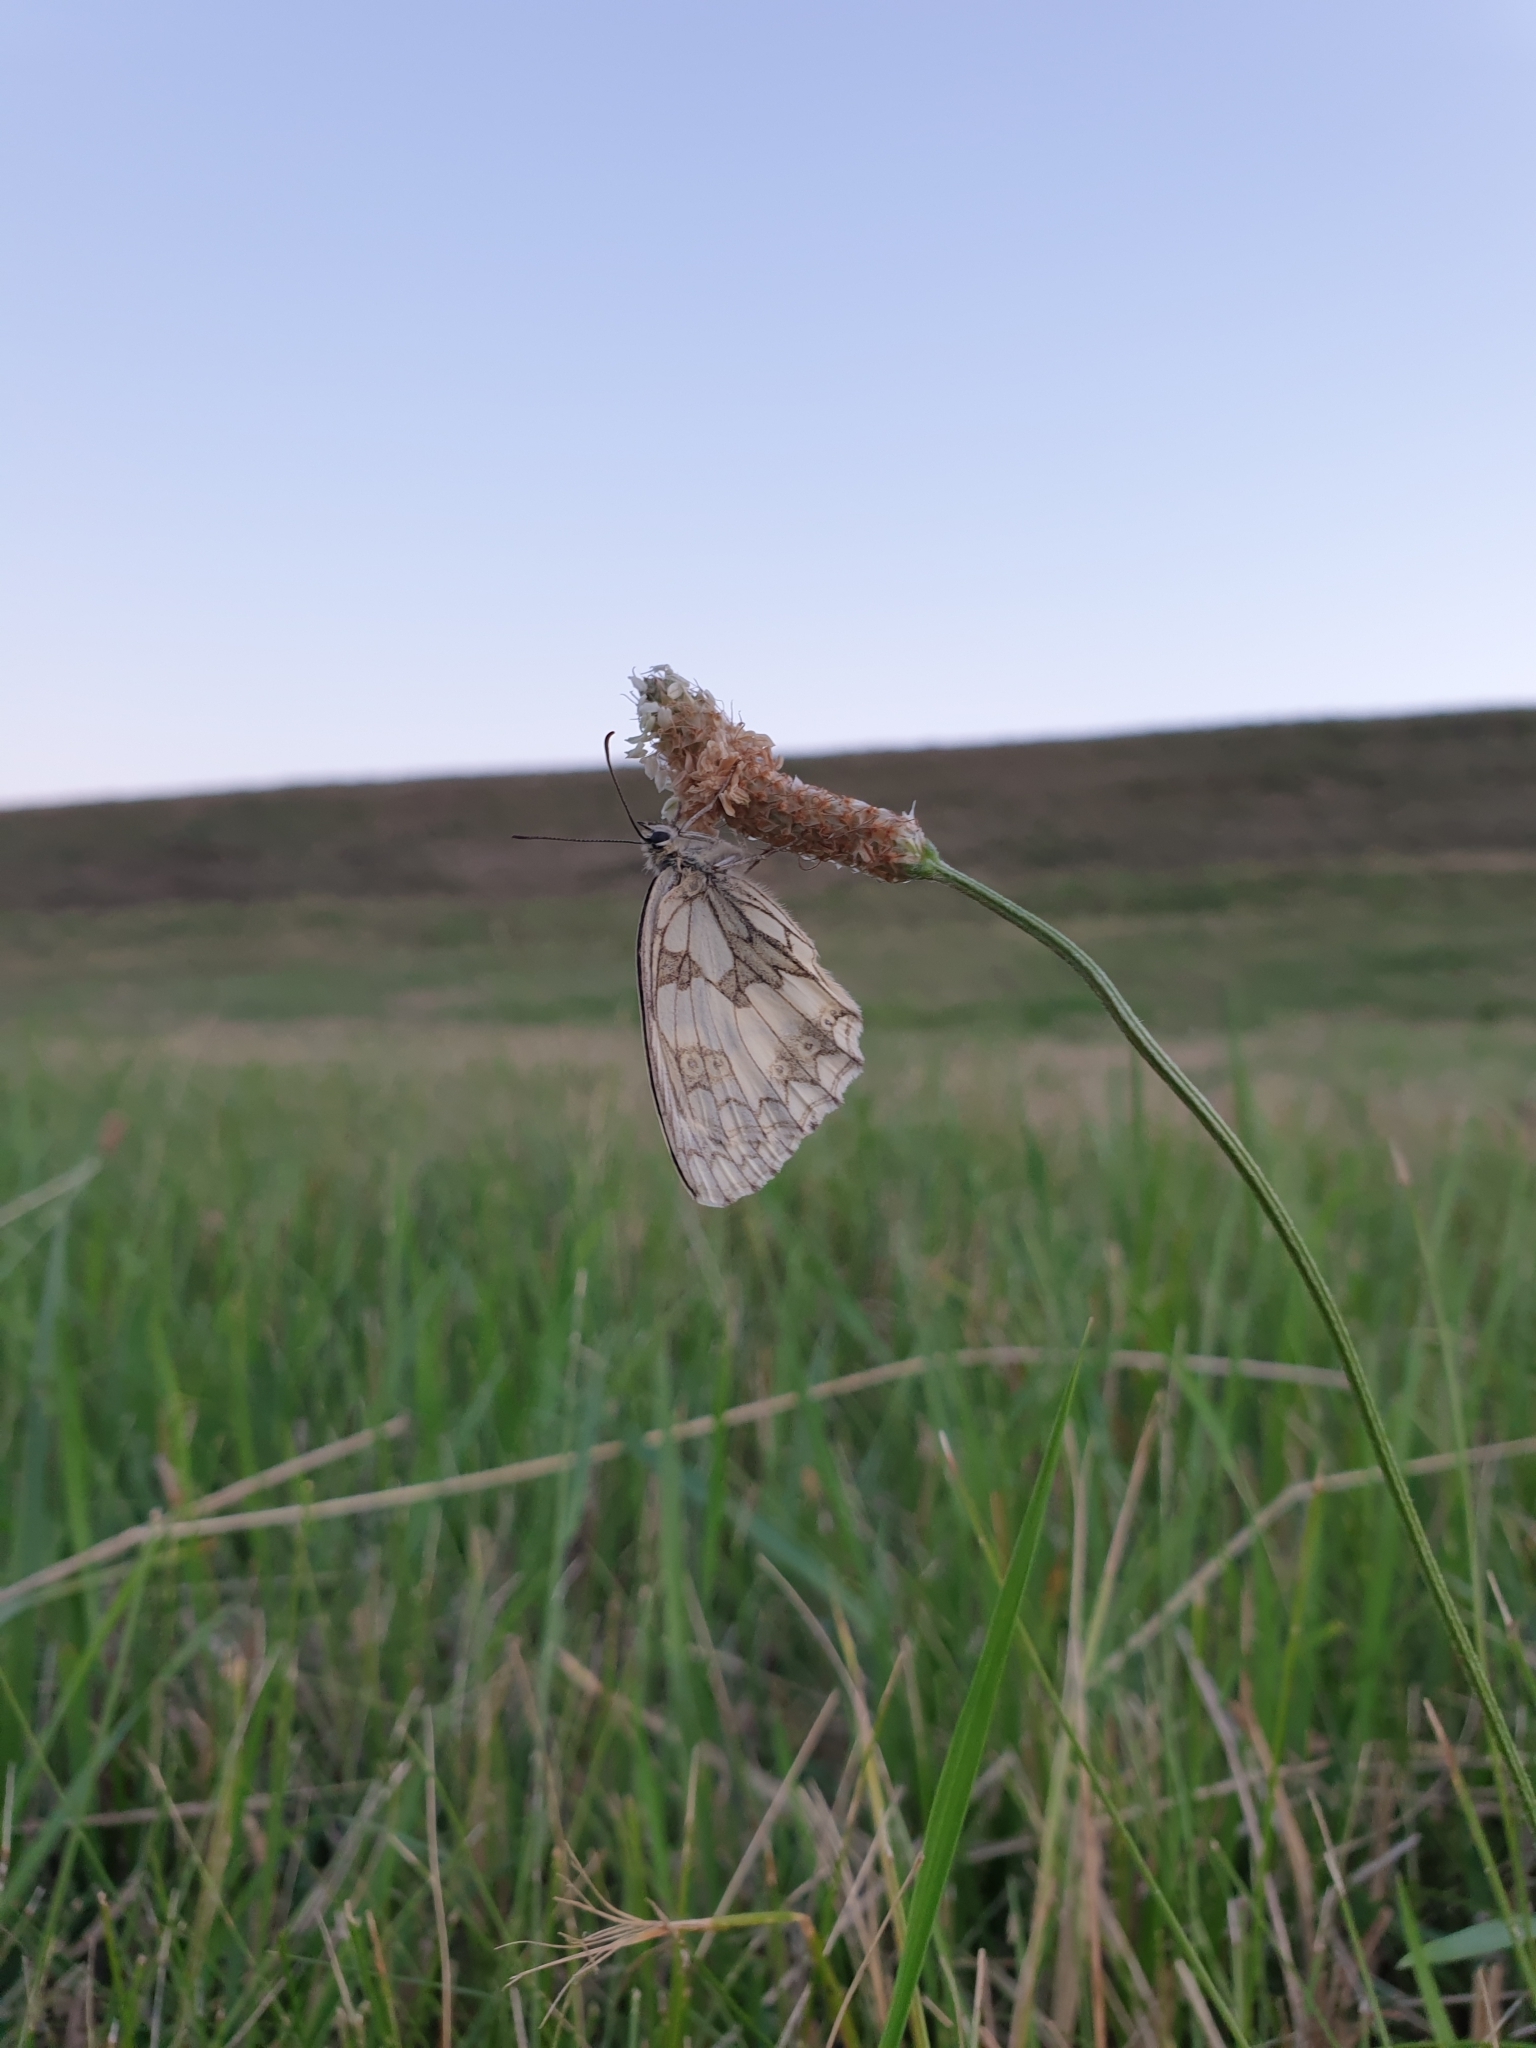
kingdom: Animalia
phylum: Arthropoda
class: Insecta
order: Lepidoptera
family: Nymphalidae
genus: Melanargia
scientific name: Melanargia galathea
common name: Marbled white
